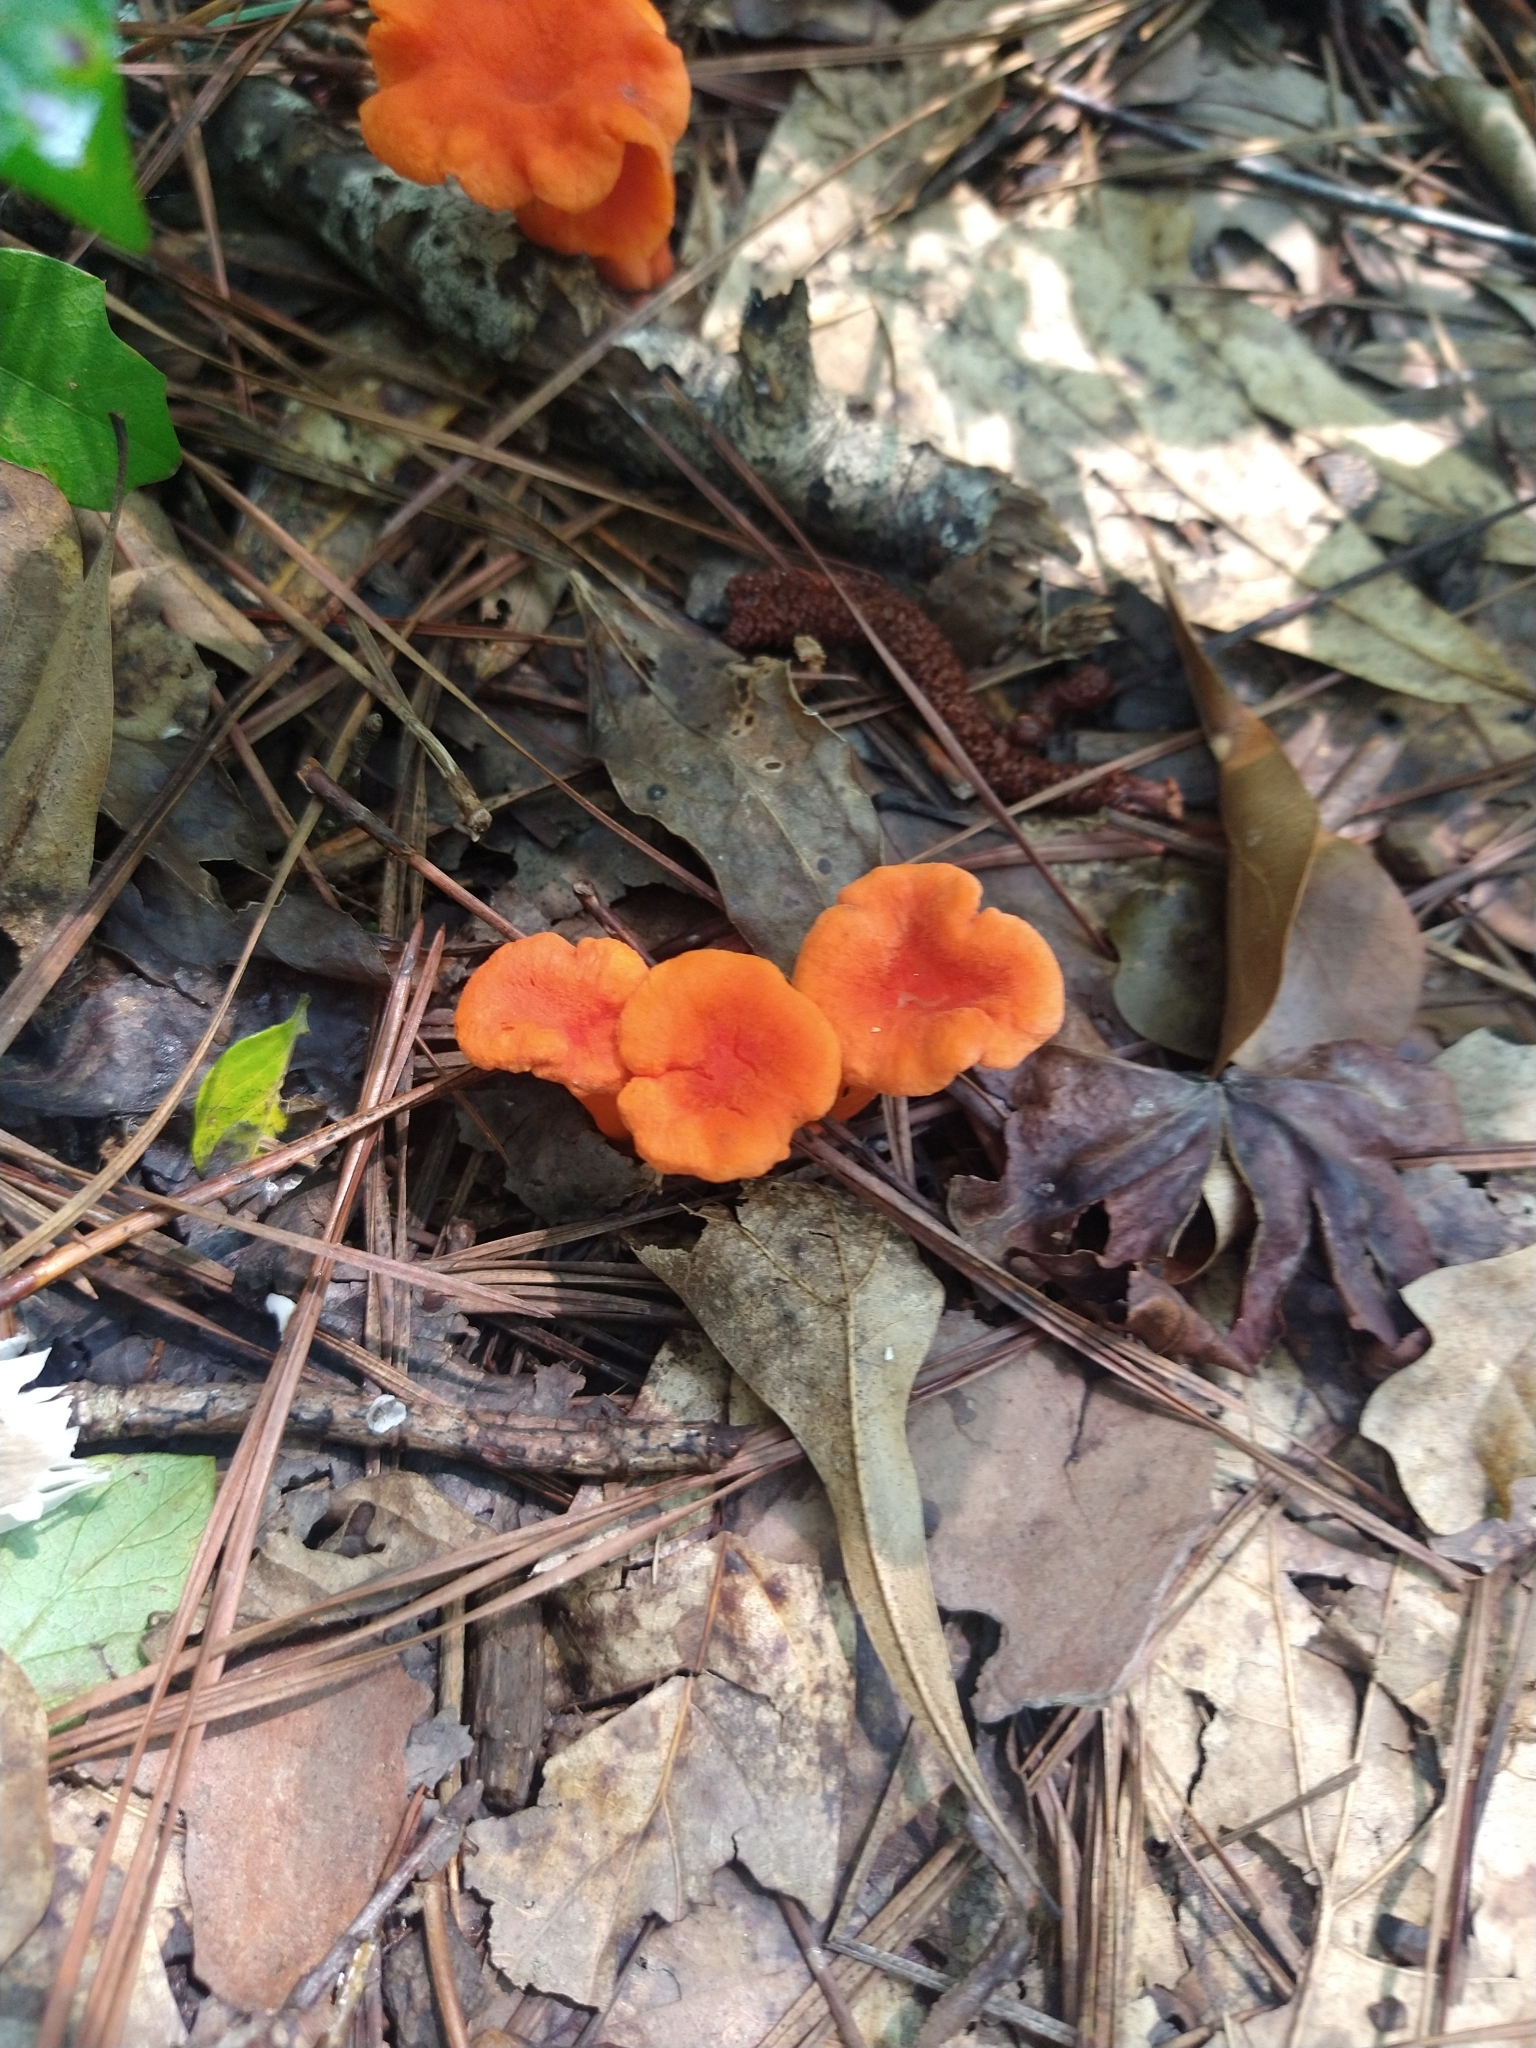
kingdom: Fungi
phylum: Basidiomycota
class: Agaricomycetes
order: Cantharellales
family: Hydnaceae
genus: Cantharellus
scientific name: Cantharellus cinnabarinus
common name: Cinnabar chanterelle
